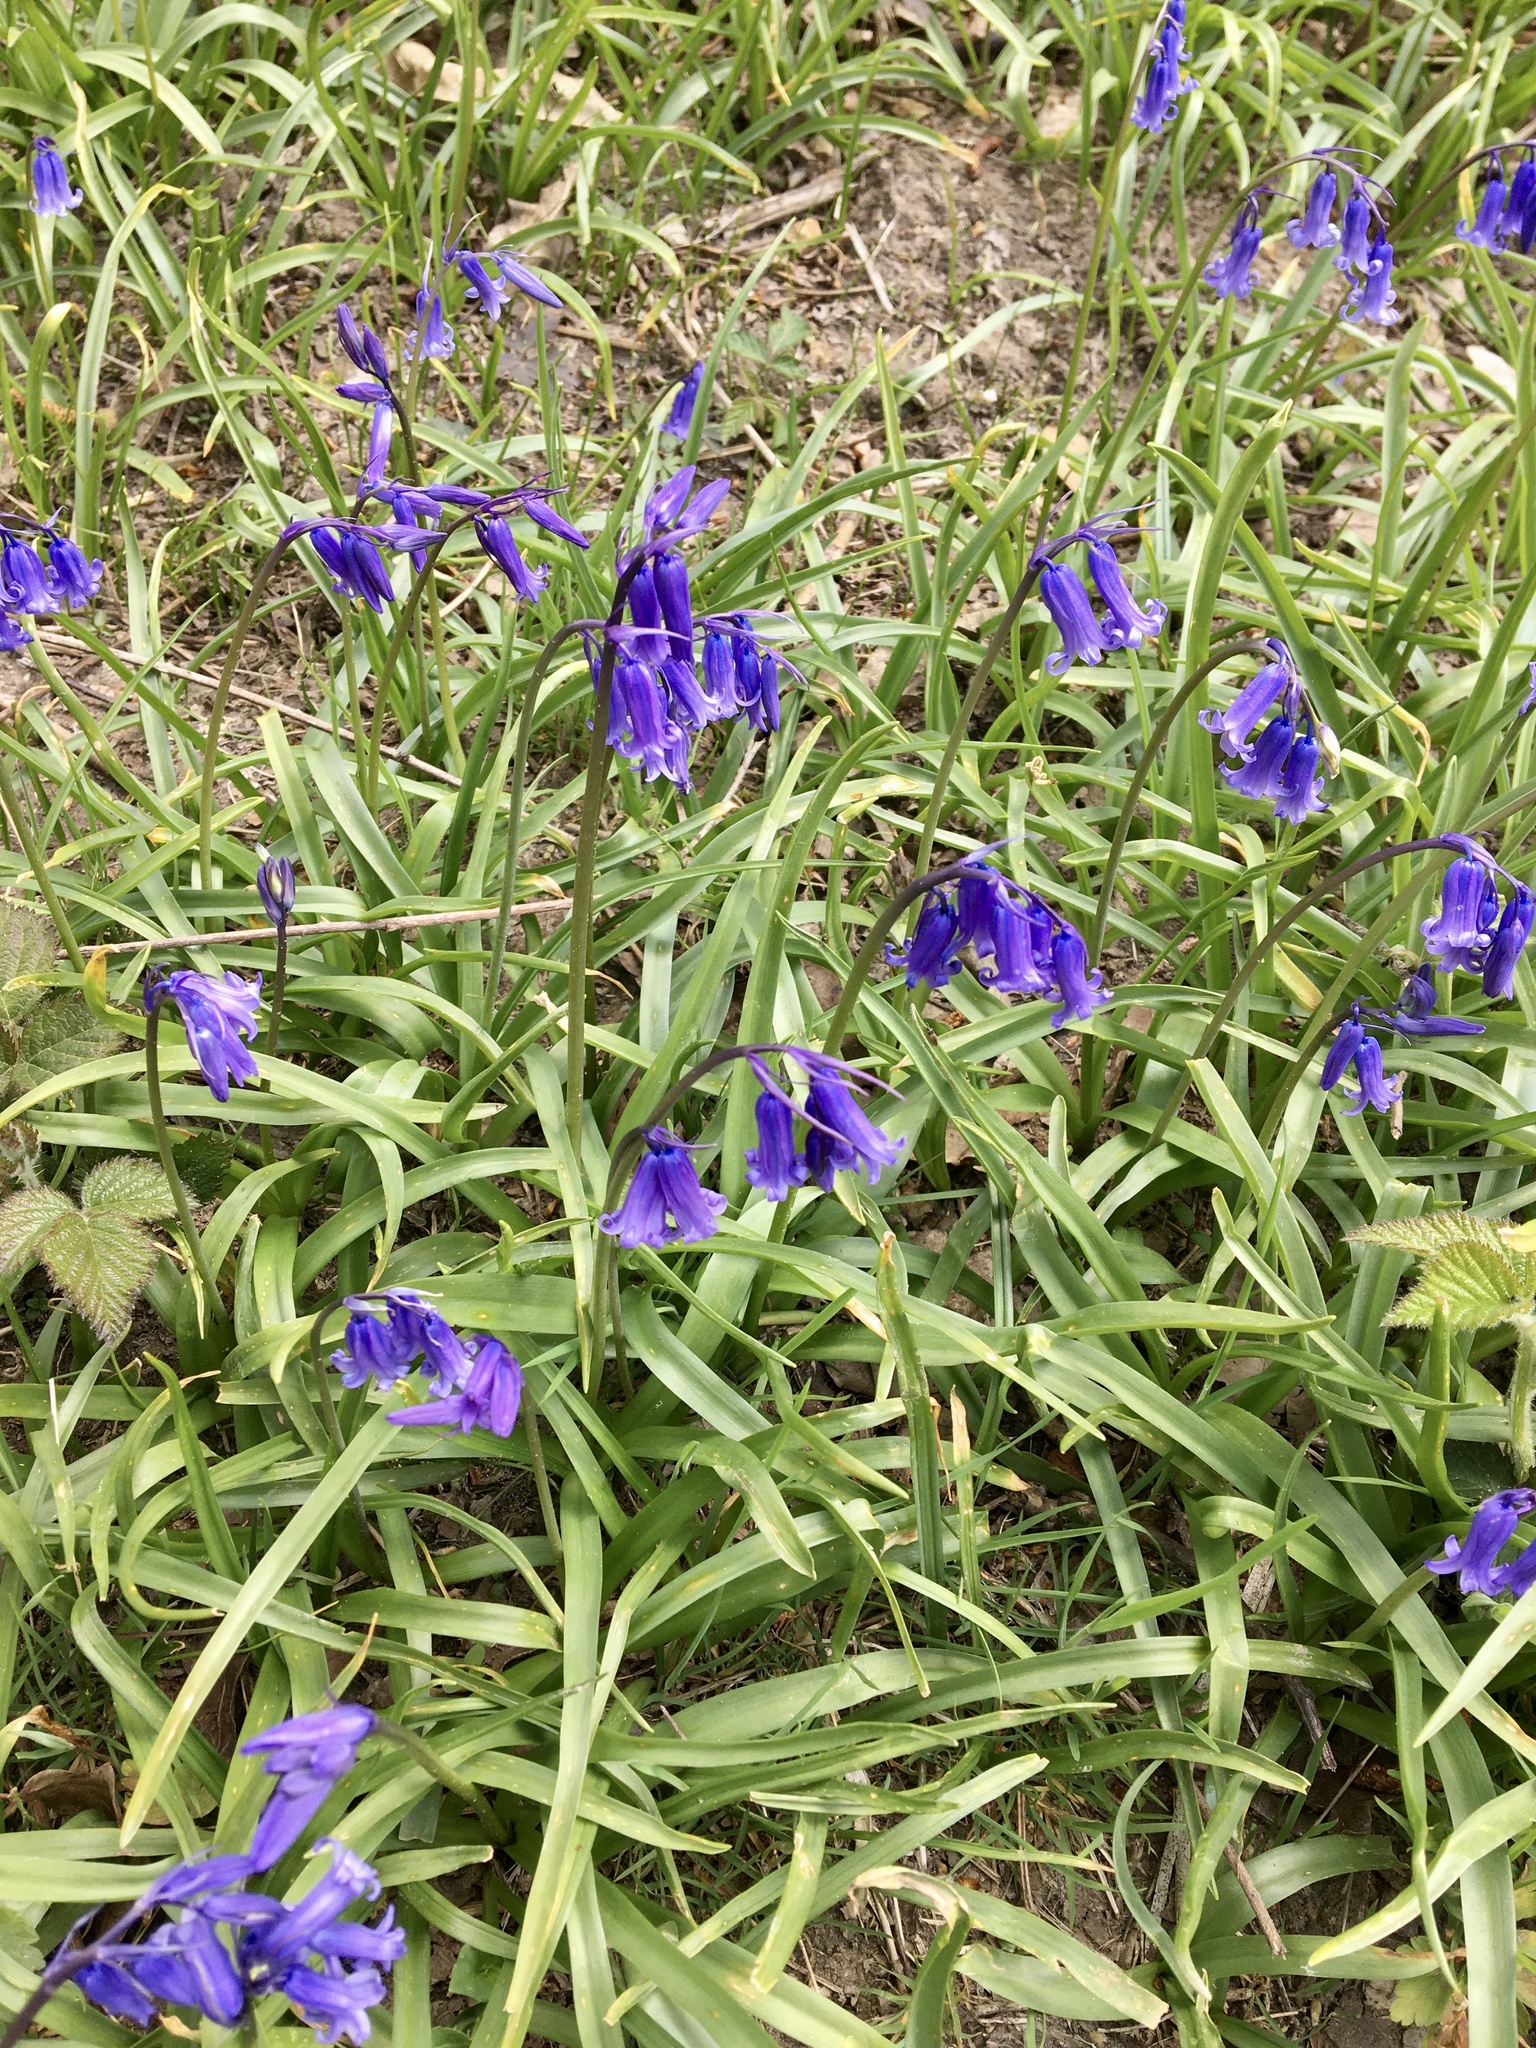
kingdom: Plantae
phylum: Tracheophyta
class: Liliopsida
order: Asparagales
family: Asparagaceae
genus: Hyacinthoides
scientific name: Hyacinthoides non-scripta
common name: Bluebell
